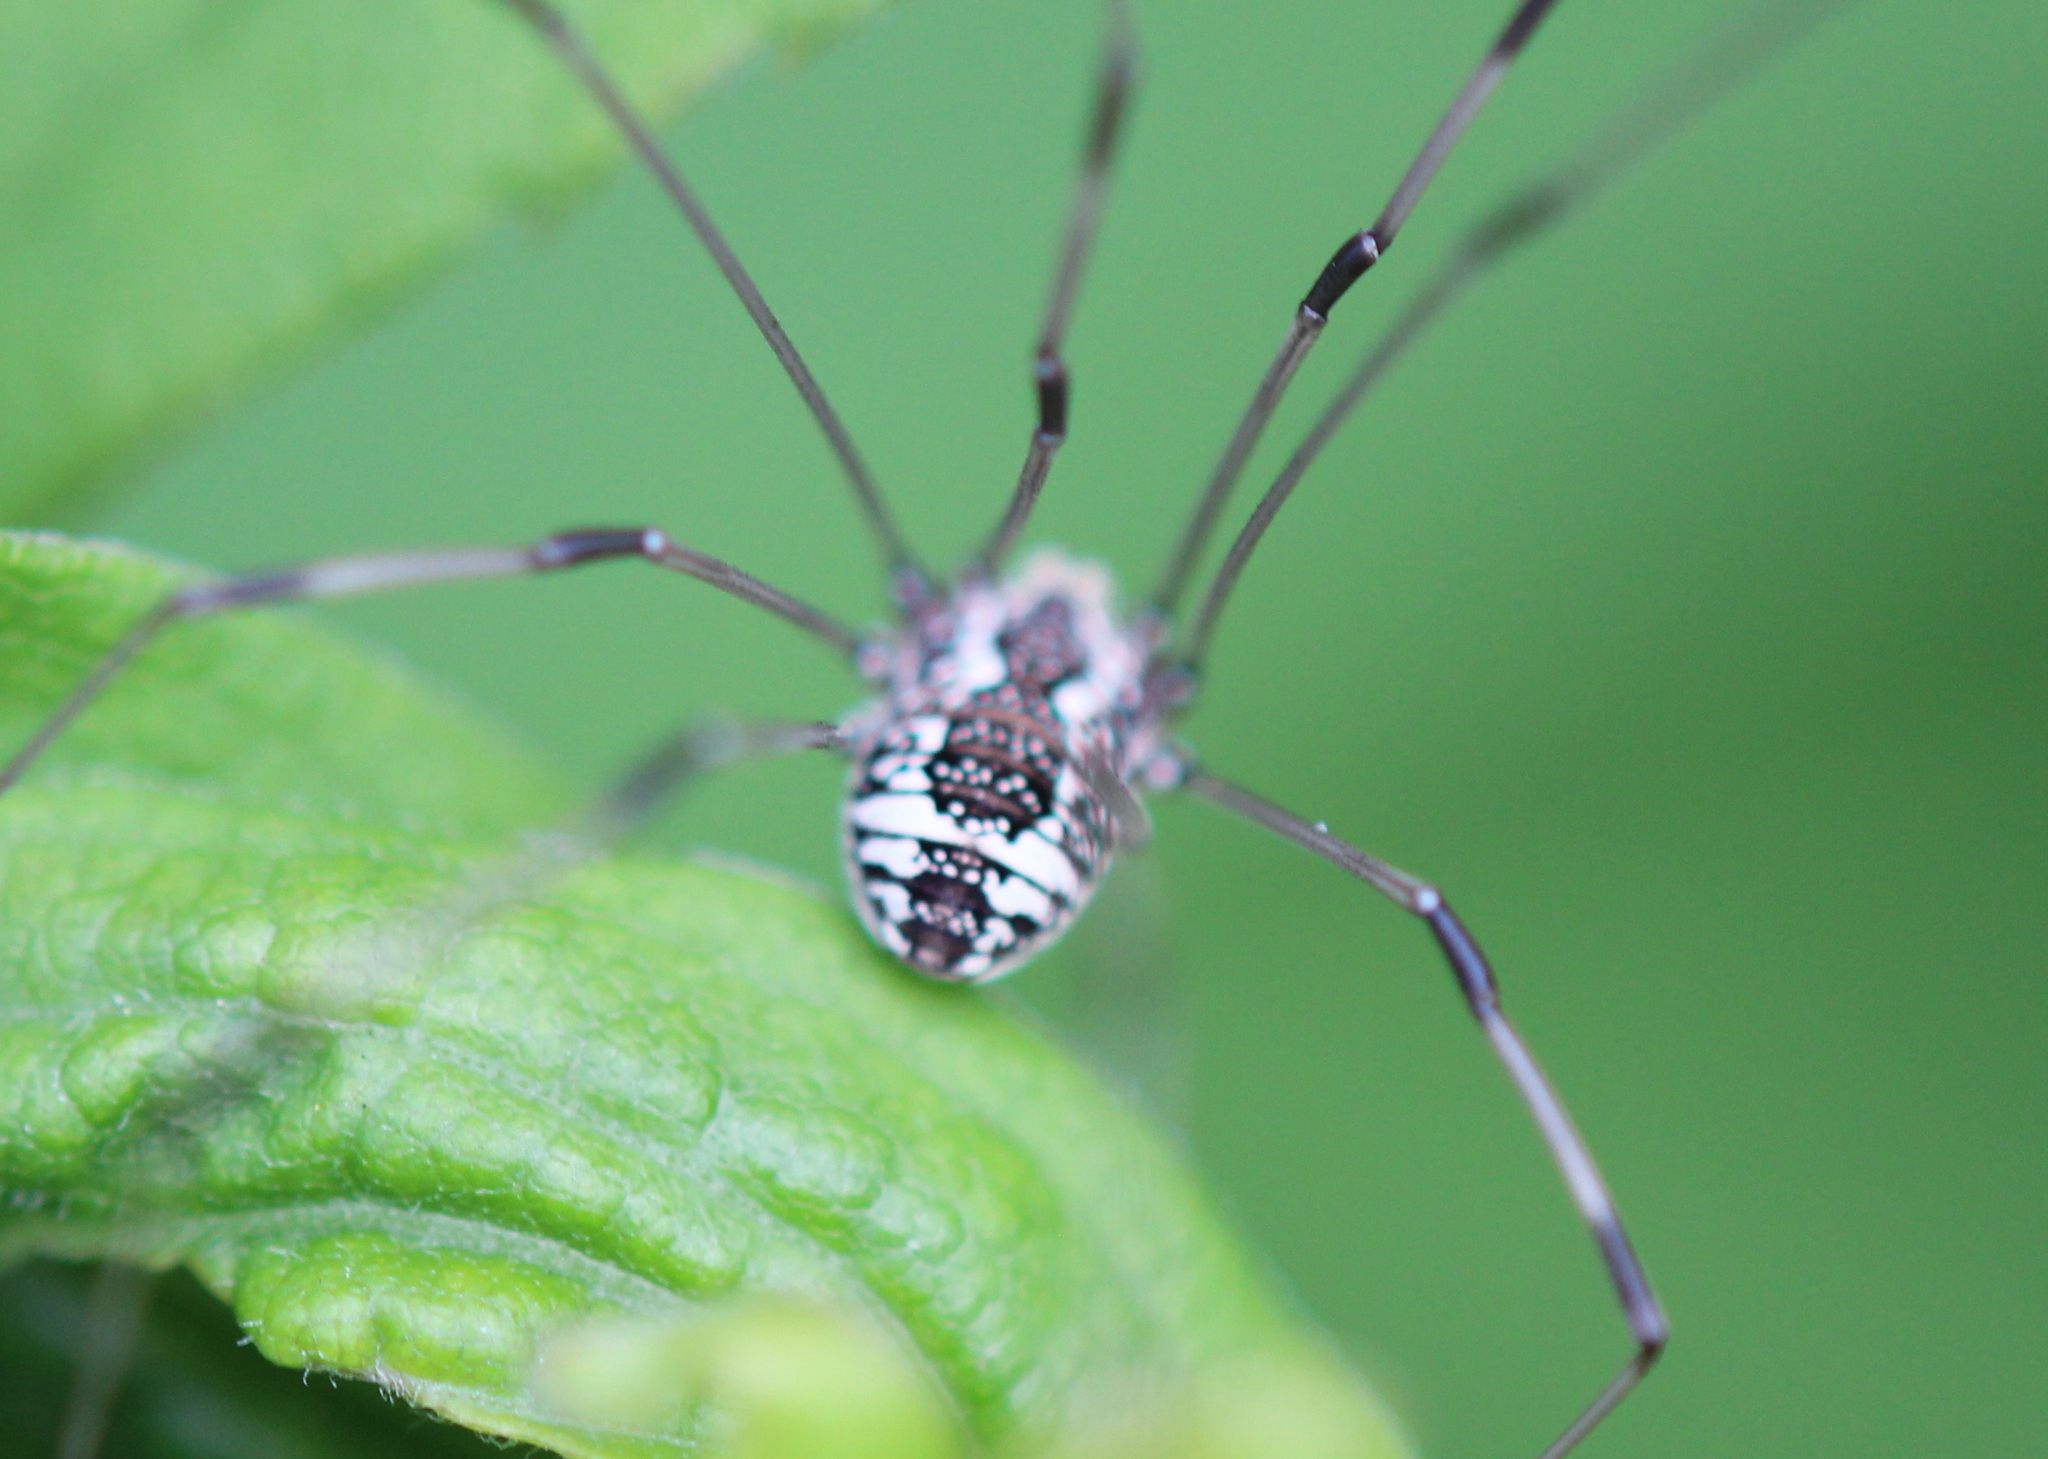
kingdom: Animalia
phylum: Arthropoda
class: Arachnida
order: Opiliones
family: Sclerosomatidae
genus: Leiobunum
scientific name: Leiobunum vittatum
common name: Eastern harvestman
